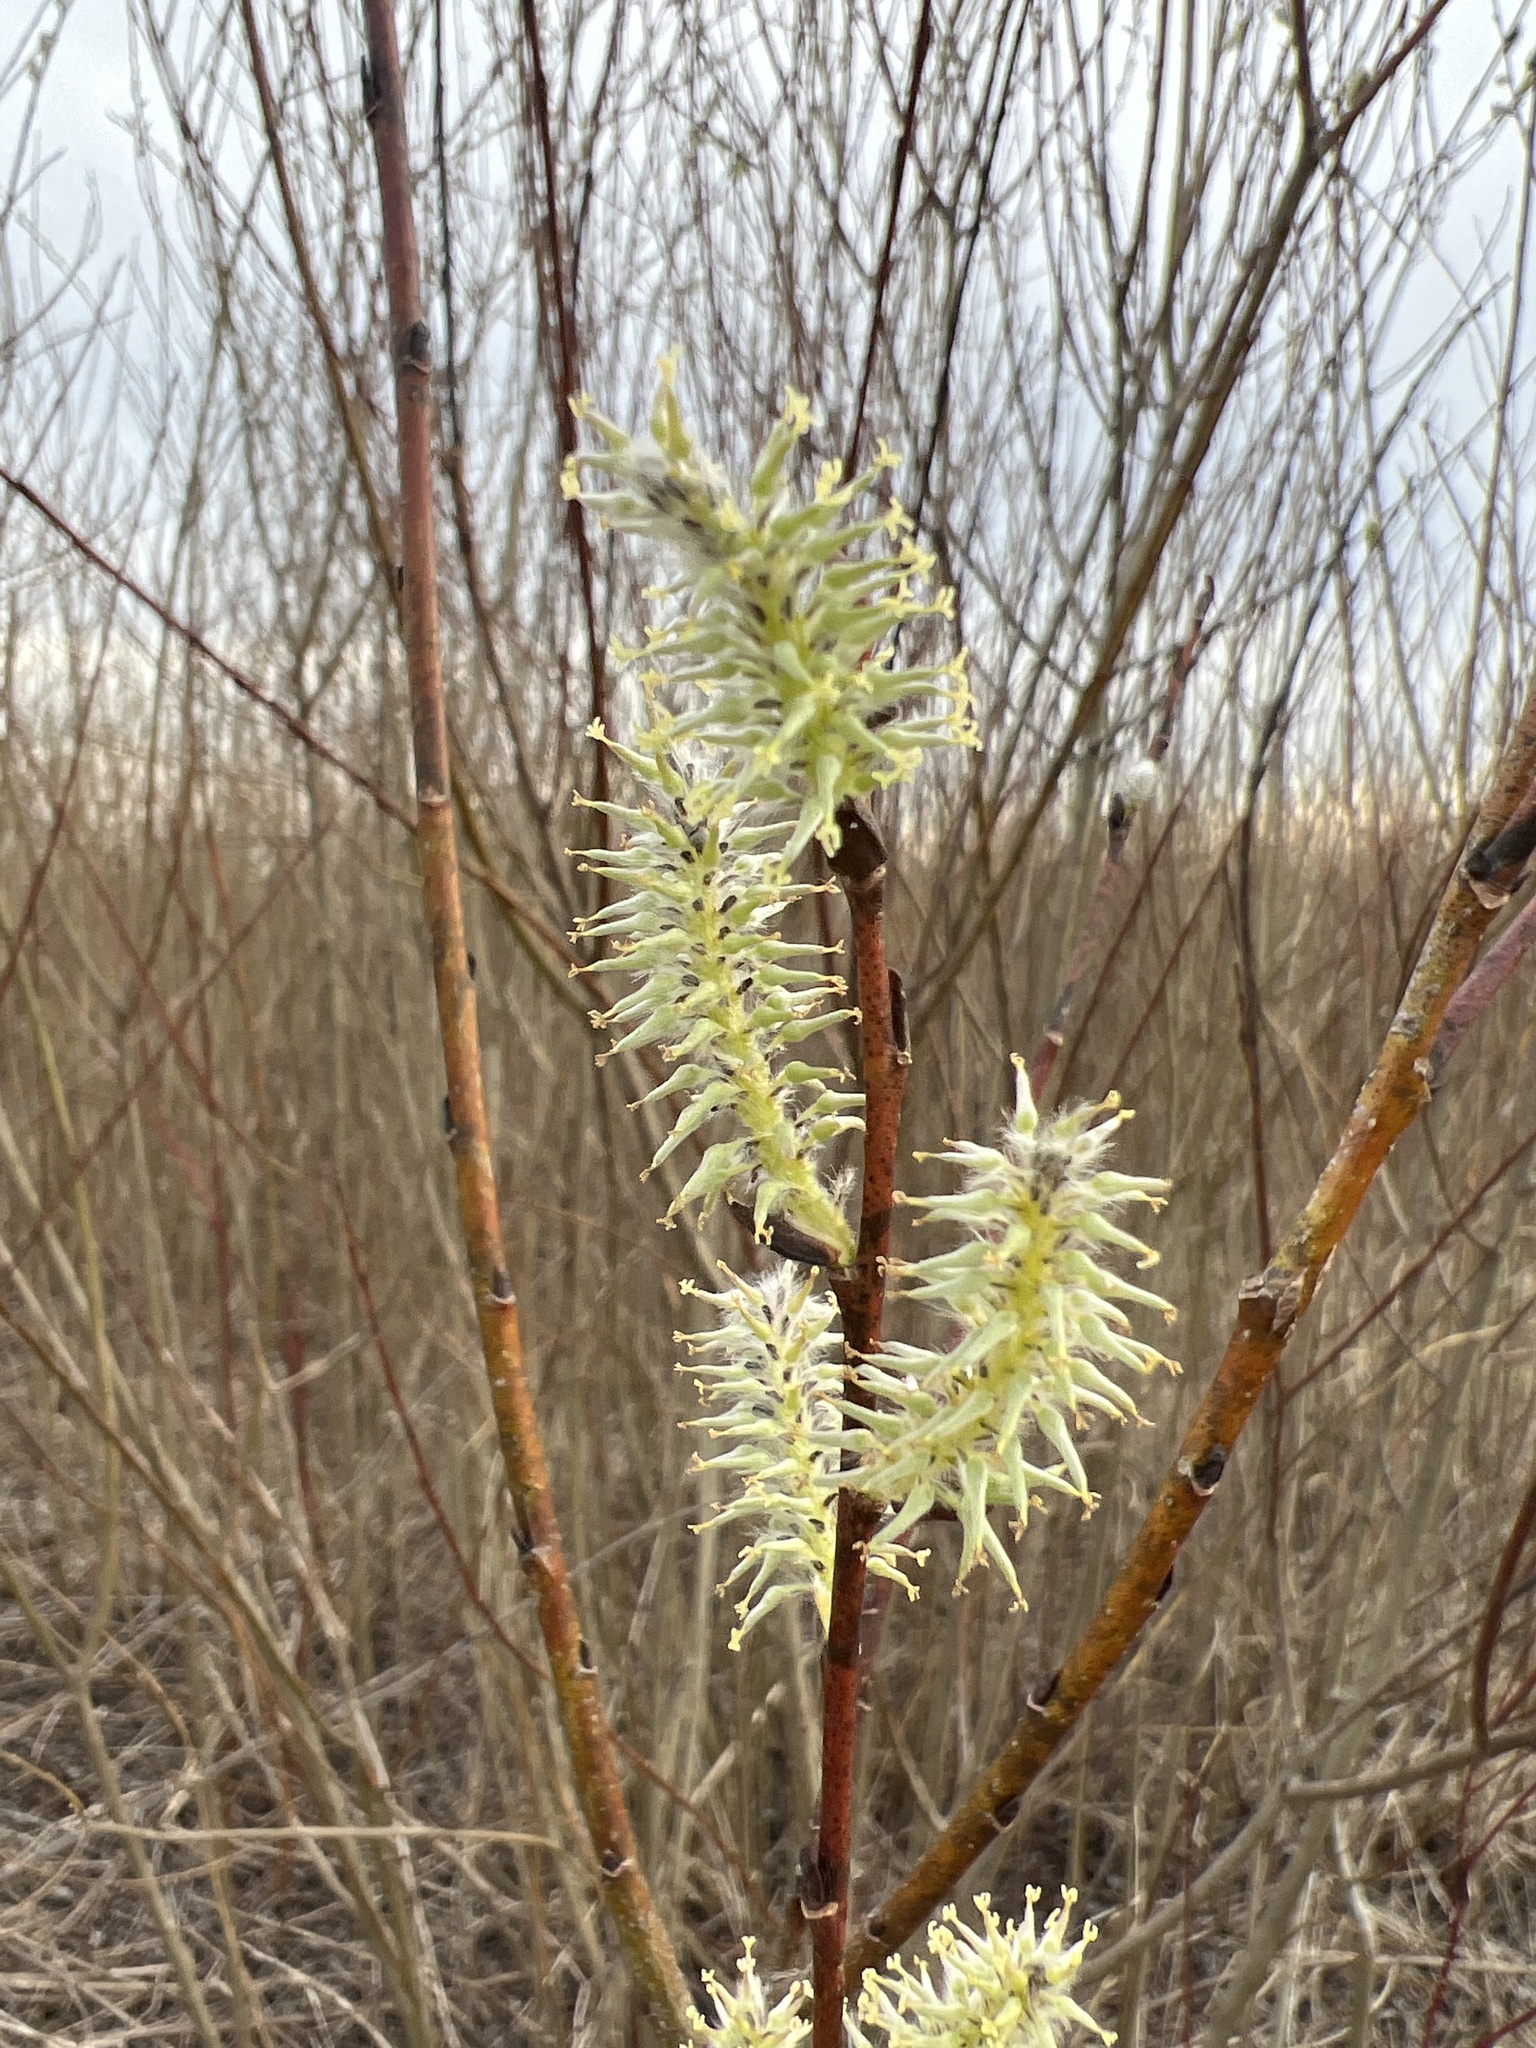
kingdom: Plantae
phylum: Tracheophyta
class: Magnoliopsida
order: Malpighiales
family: Salicaceae
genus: Salix
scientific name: Salix discolor
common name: Glaucous willow
